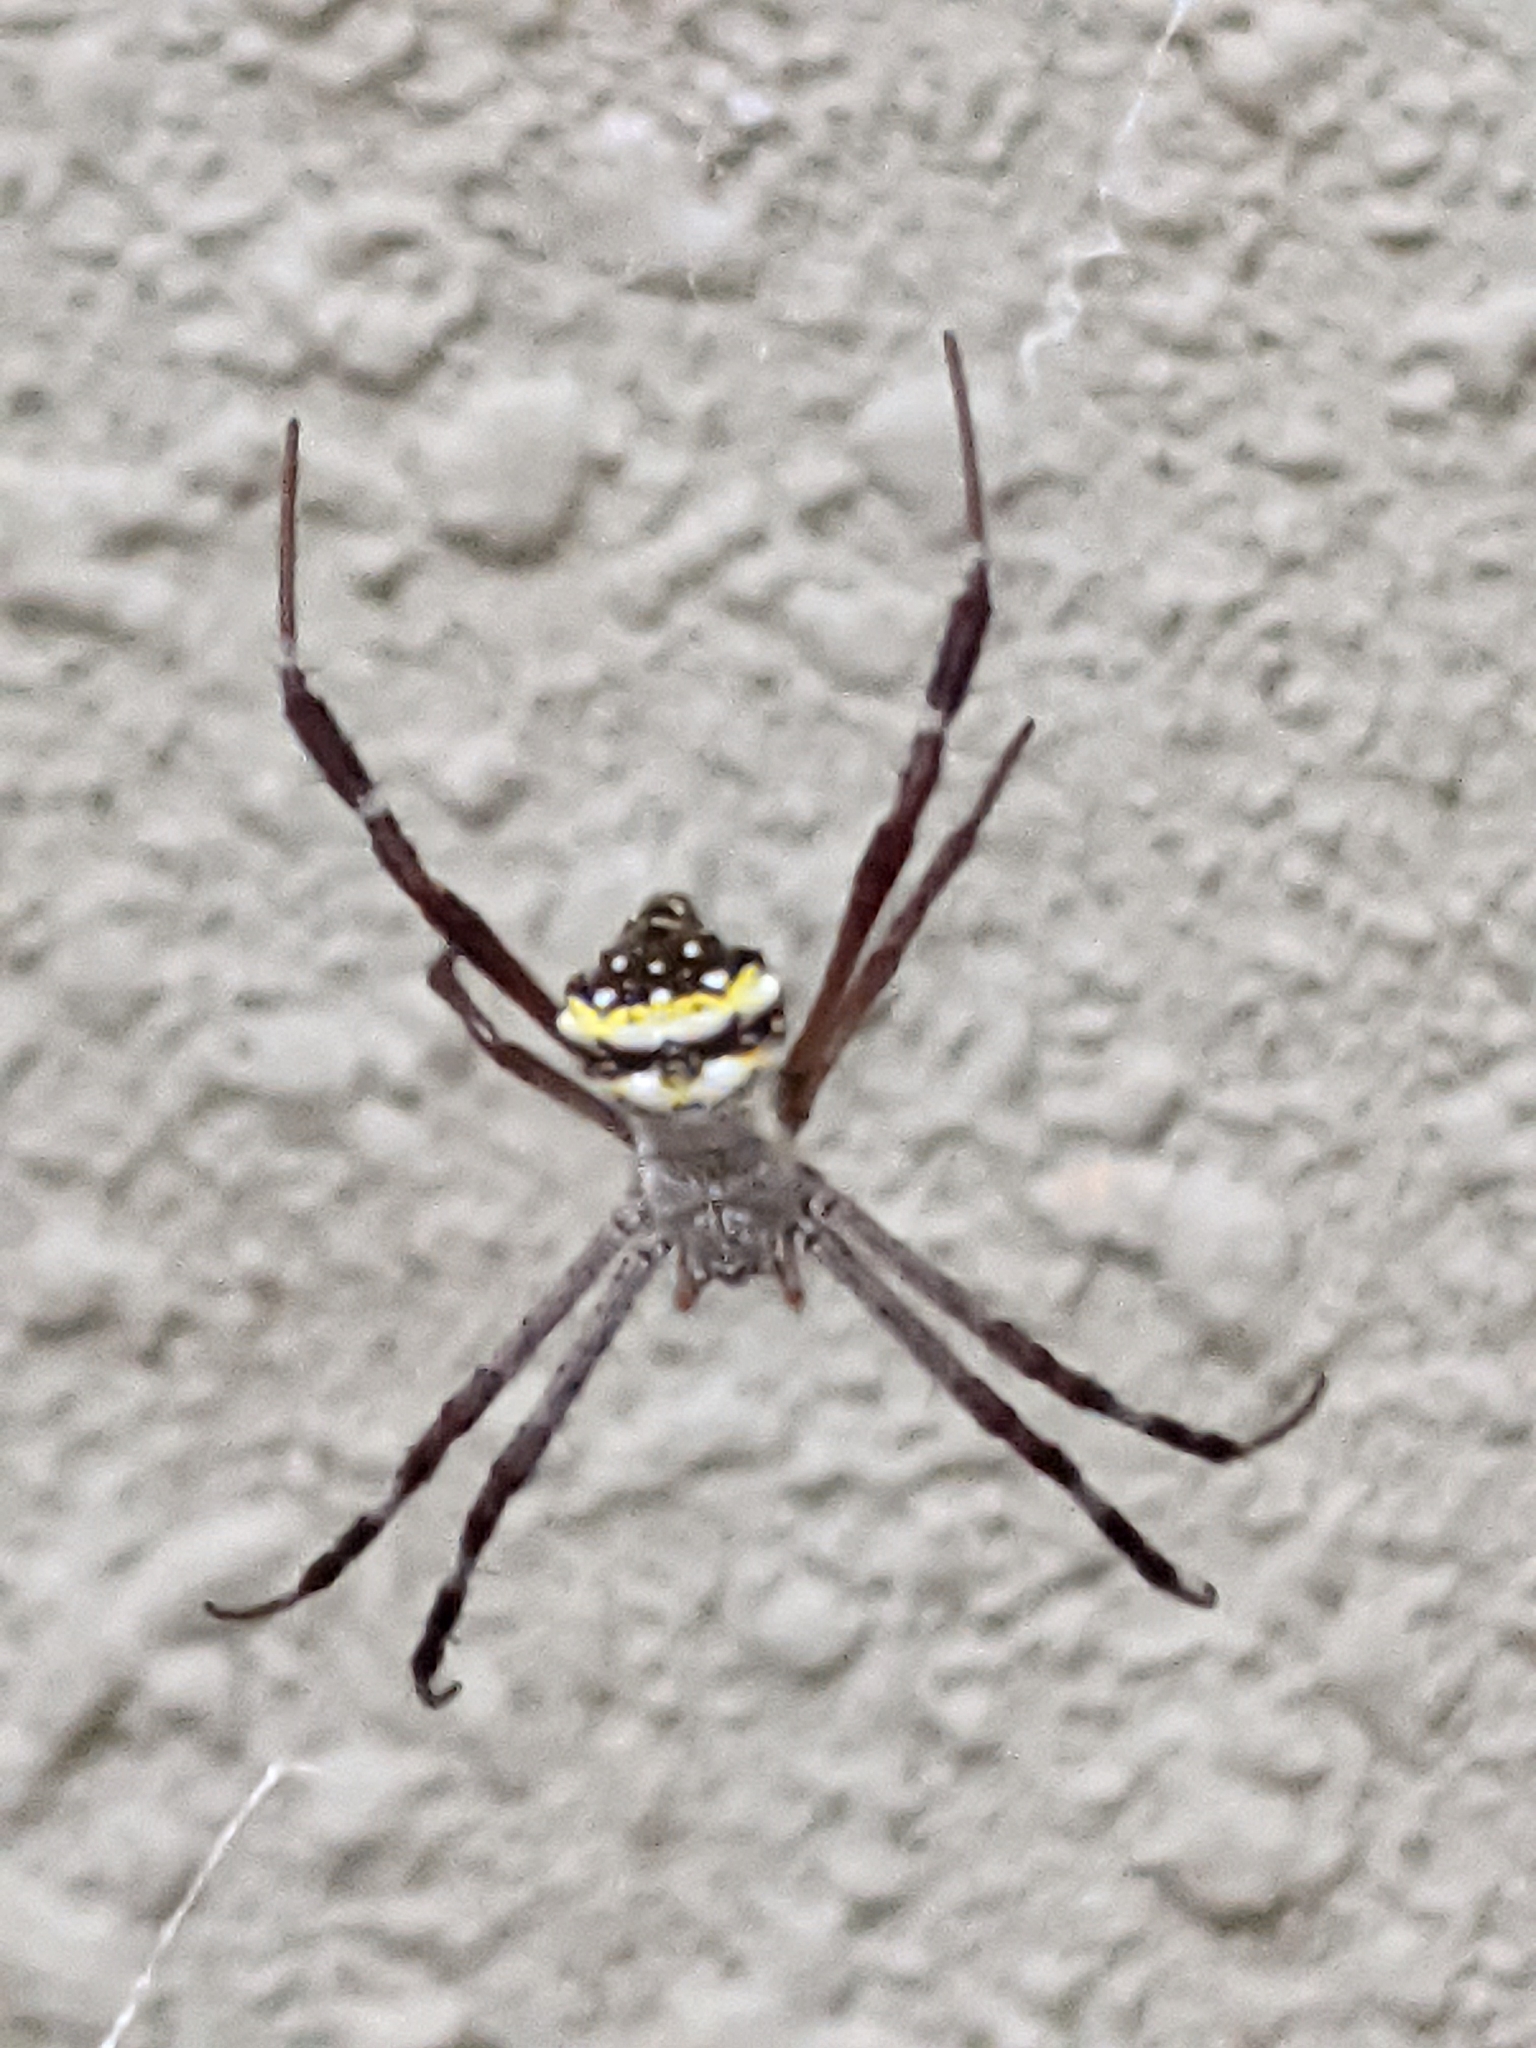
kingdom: Animalia
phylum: Arthropoda
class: Arachnida
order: Araneae
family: Araneidae
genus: Argiope
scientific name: Argiope anasuja
